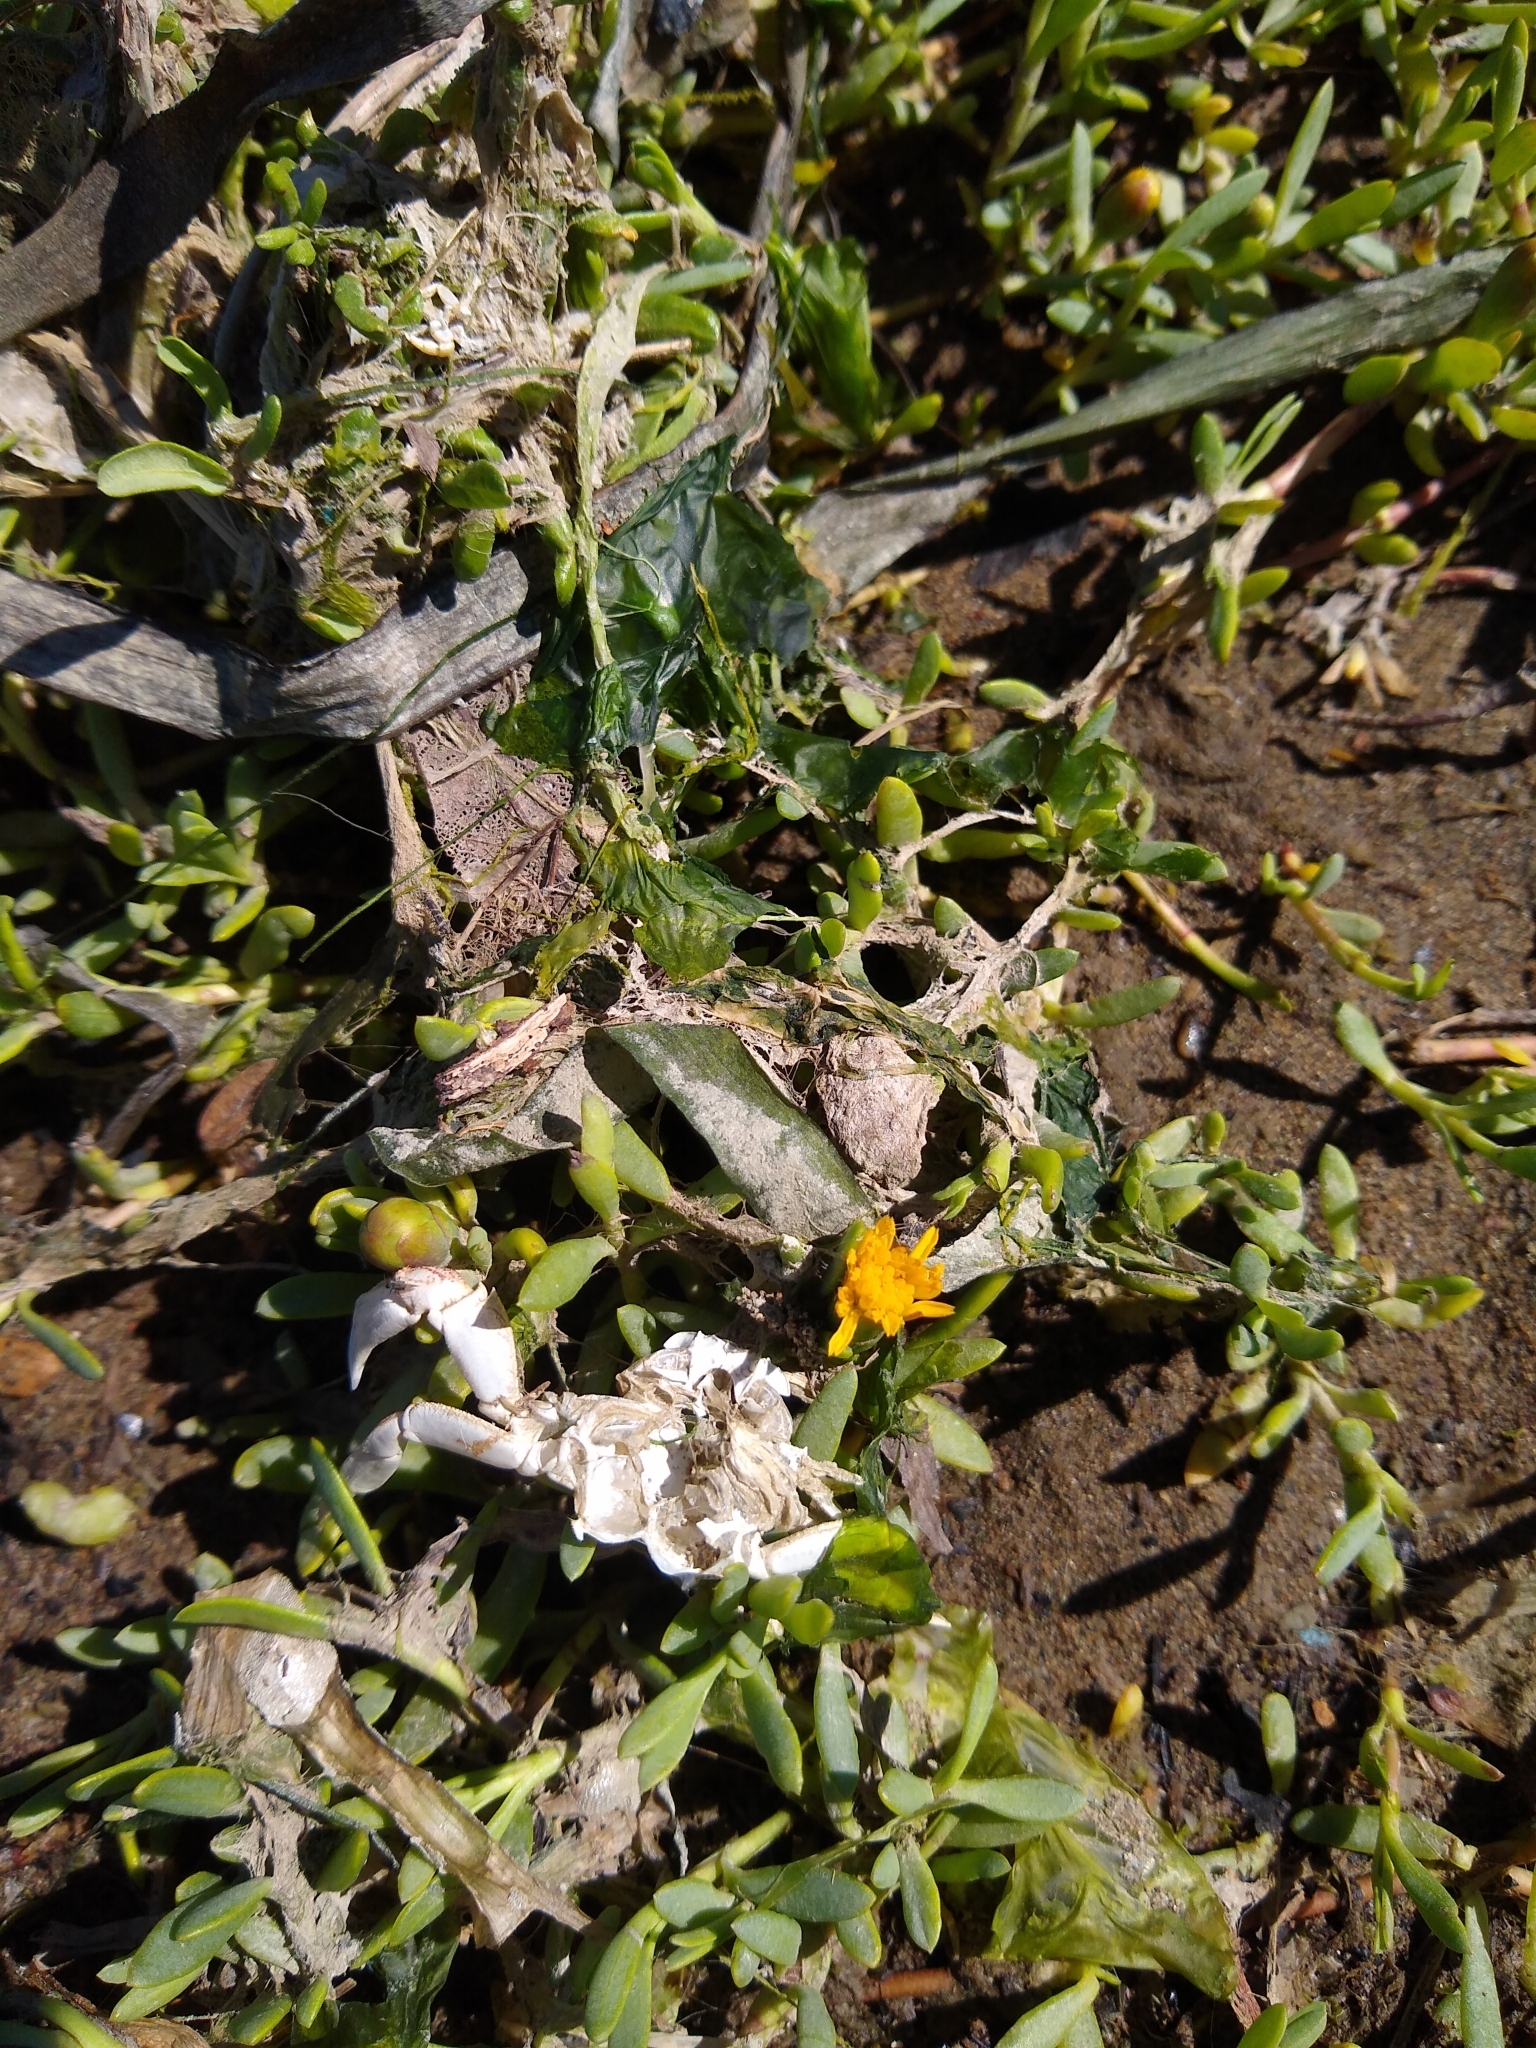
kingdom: Plantae
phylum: Tracheophyta
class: Magnoliopsida
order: Asterales
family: Asteraceae
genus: Jaumea
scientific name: Jaumea carnosa
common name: Fleshy jaumea
